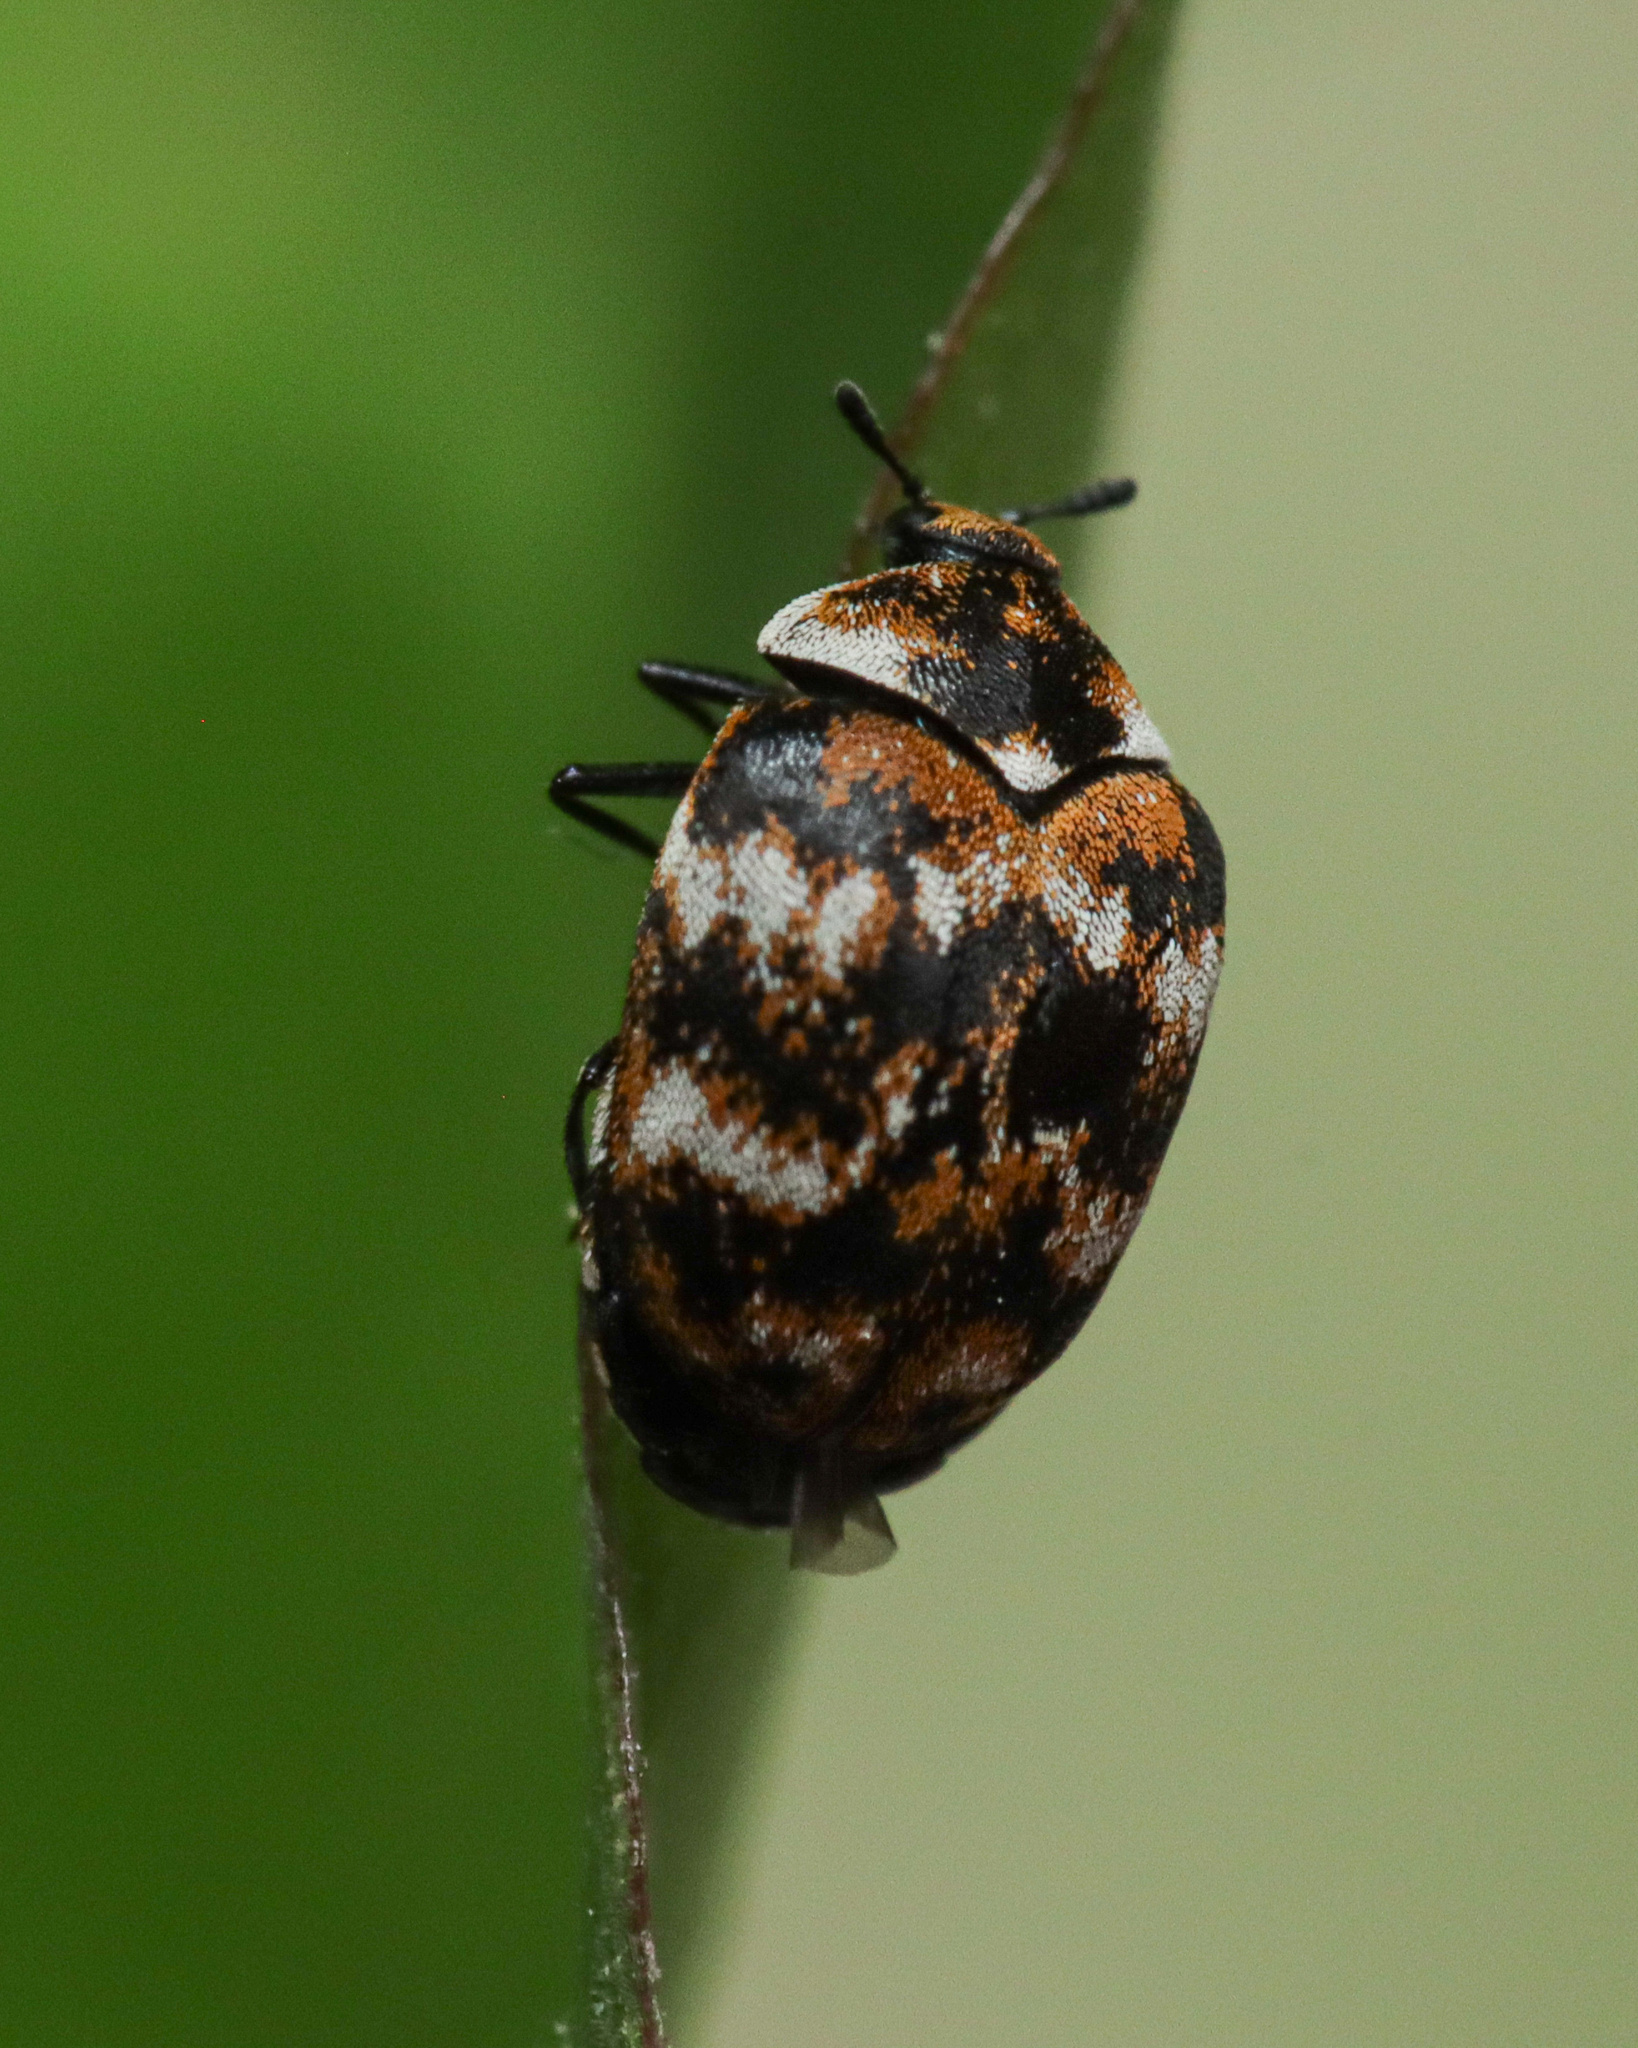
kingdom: Animalia
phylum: Arthropoda
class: Insecta
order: Coleoptera
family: Dermestidae
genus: Anthrenus
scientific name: Anthrenus verbasci
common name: Varied carpet beetle
